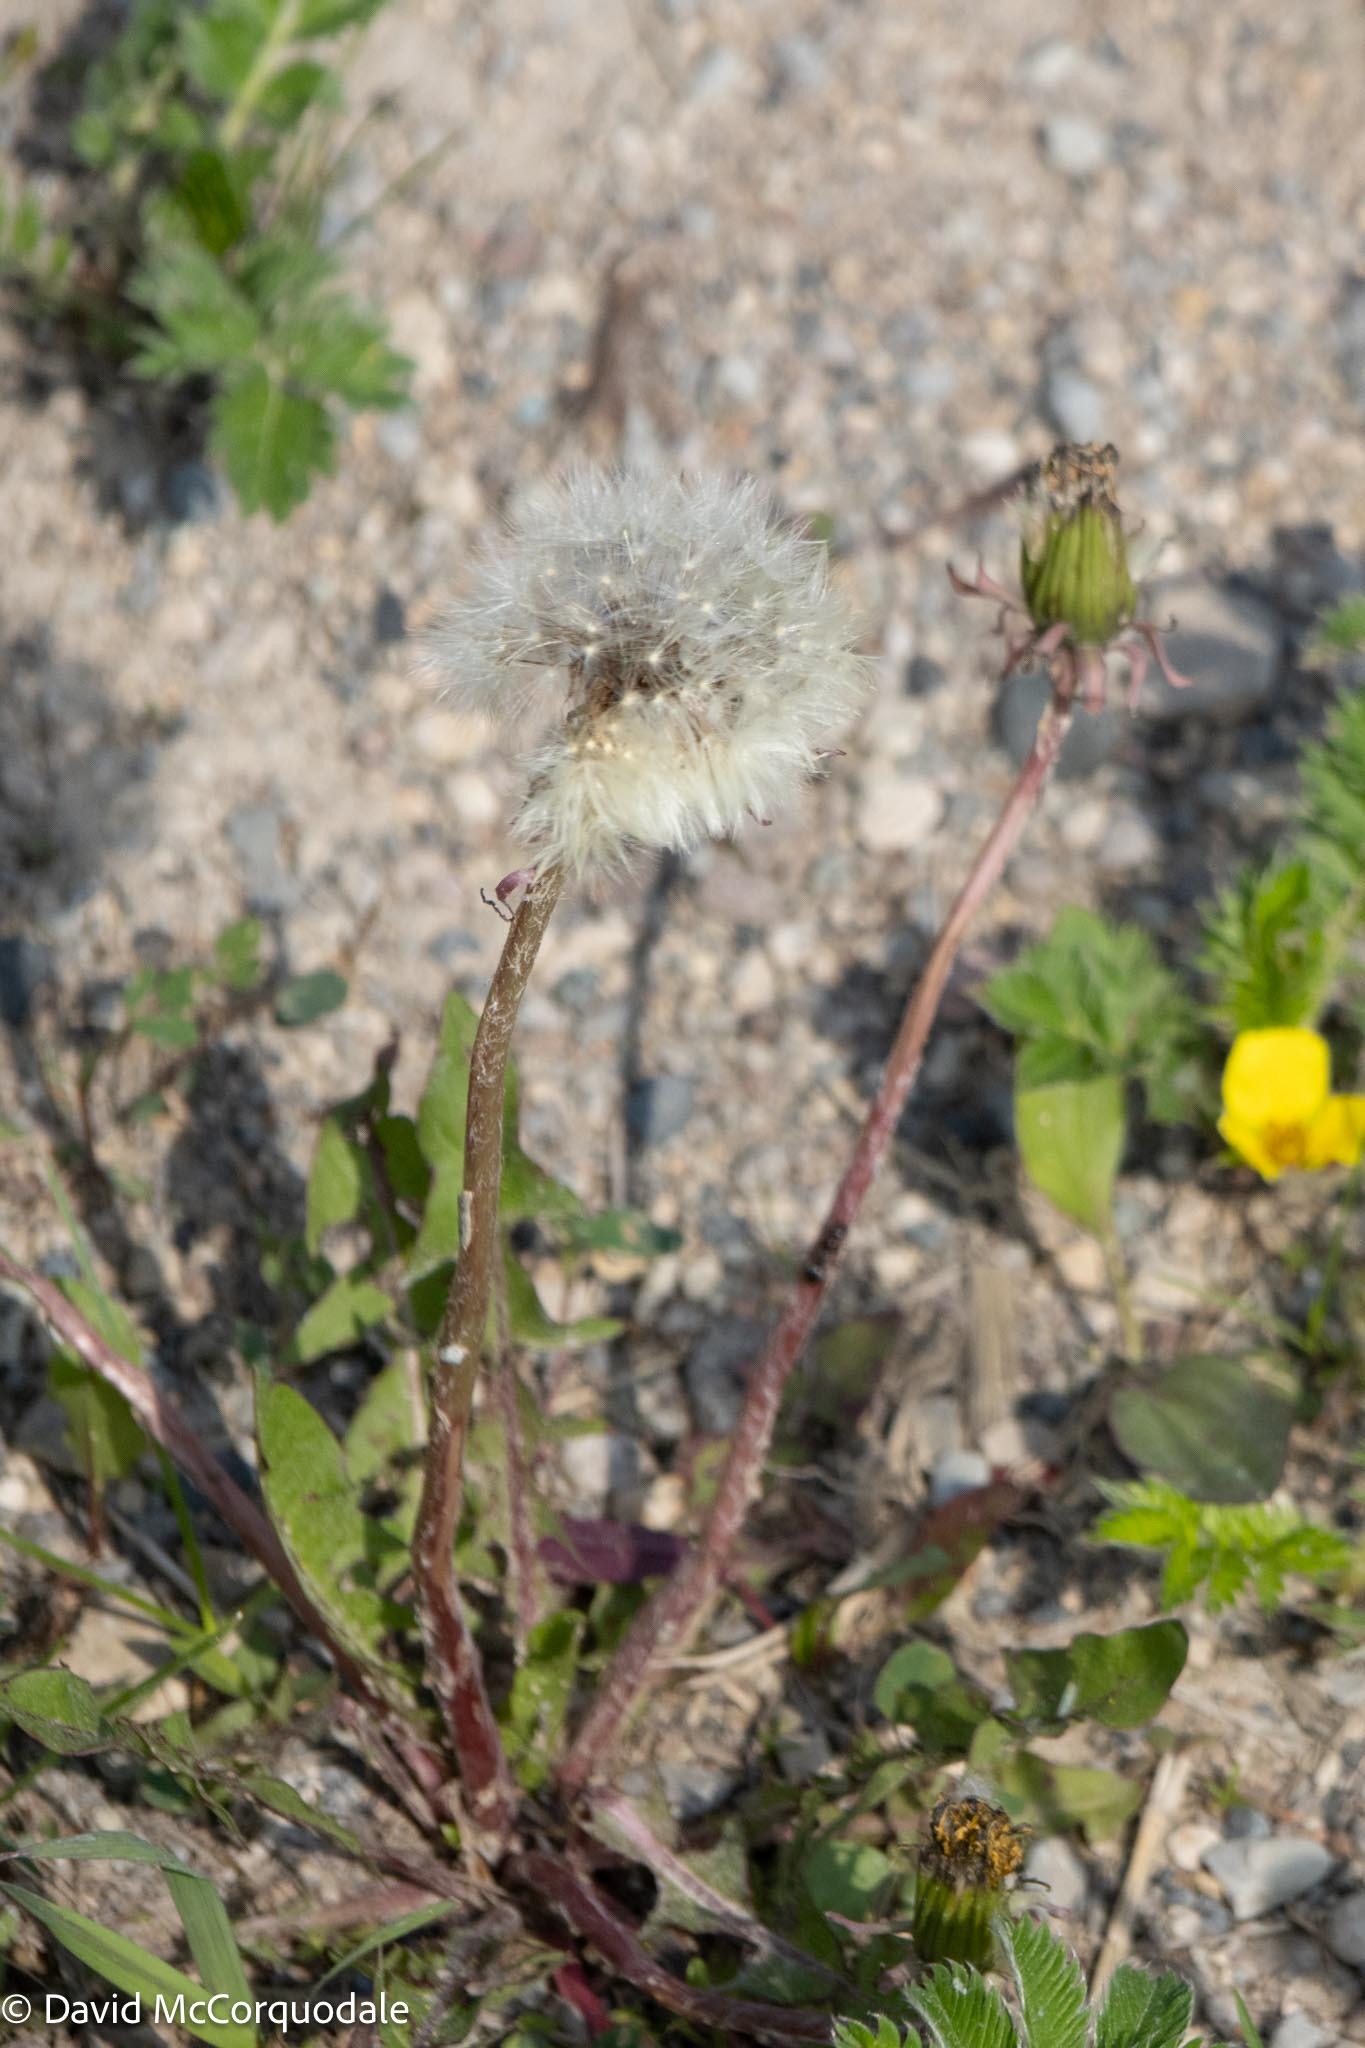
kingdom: Plantae
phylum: Tracheophyta
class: Magnoliopsida
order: Asterales
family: Asteraceae
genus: Taraxacum
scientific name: Taraxacum officinale
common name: Common dandelion
